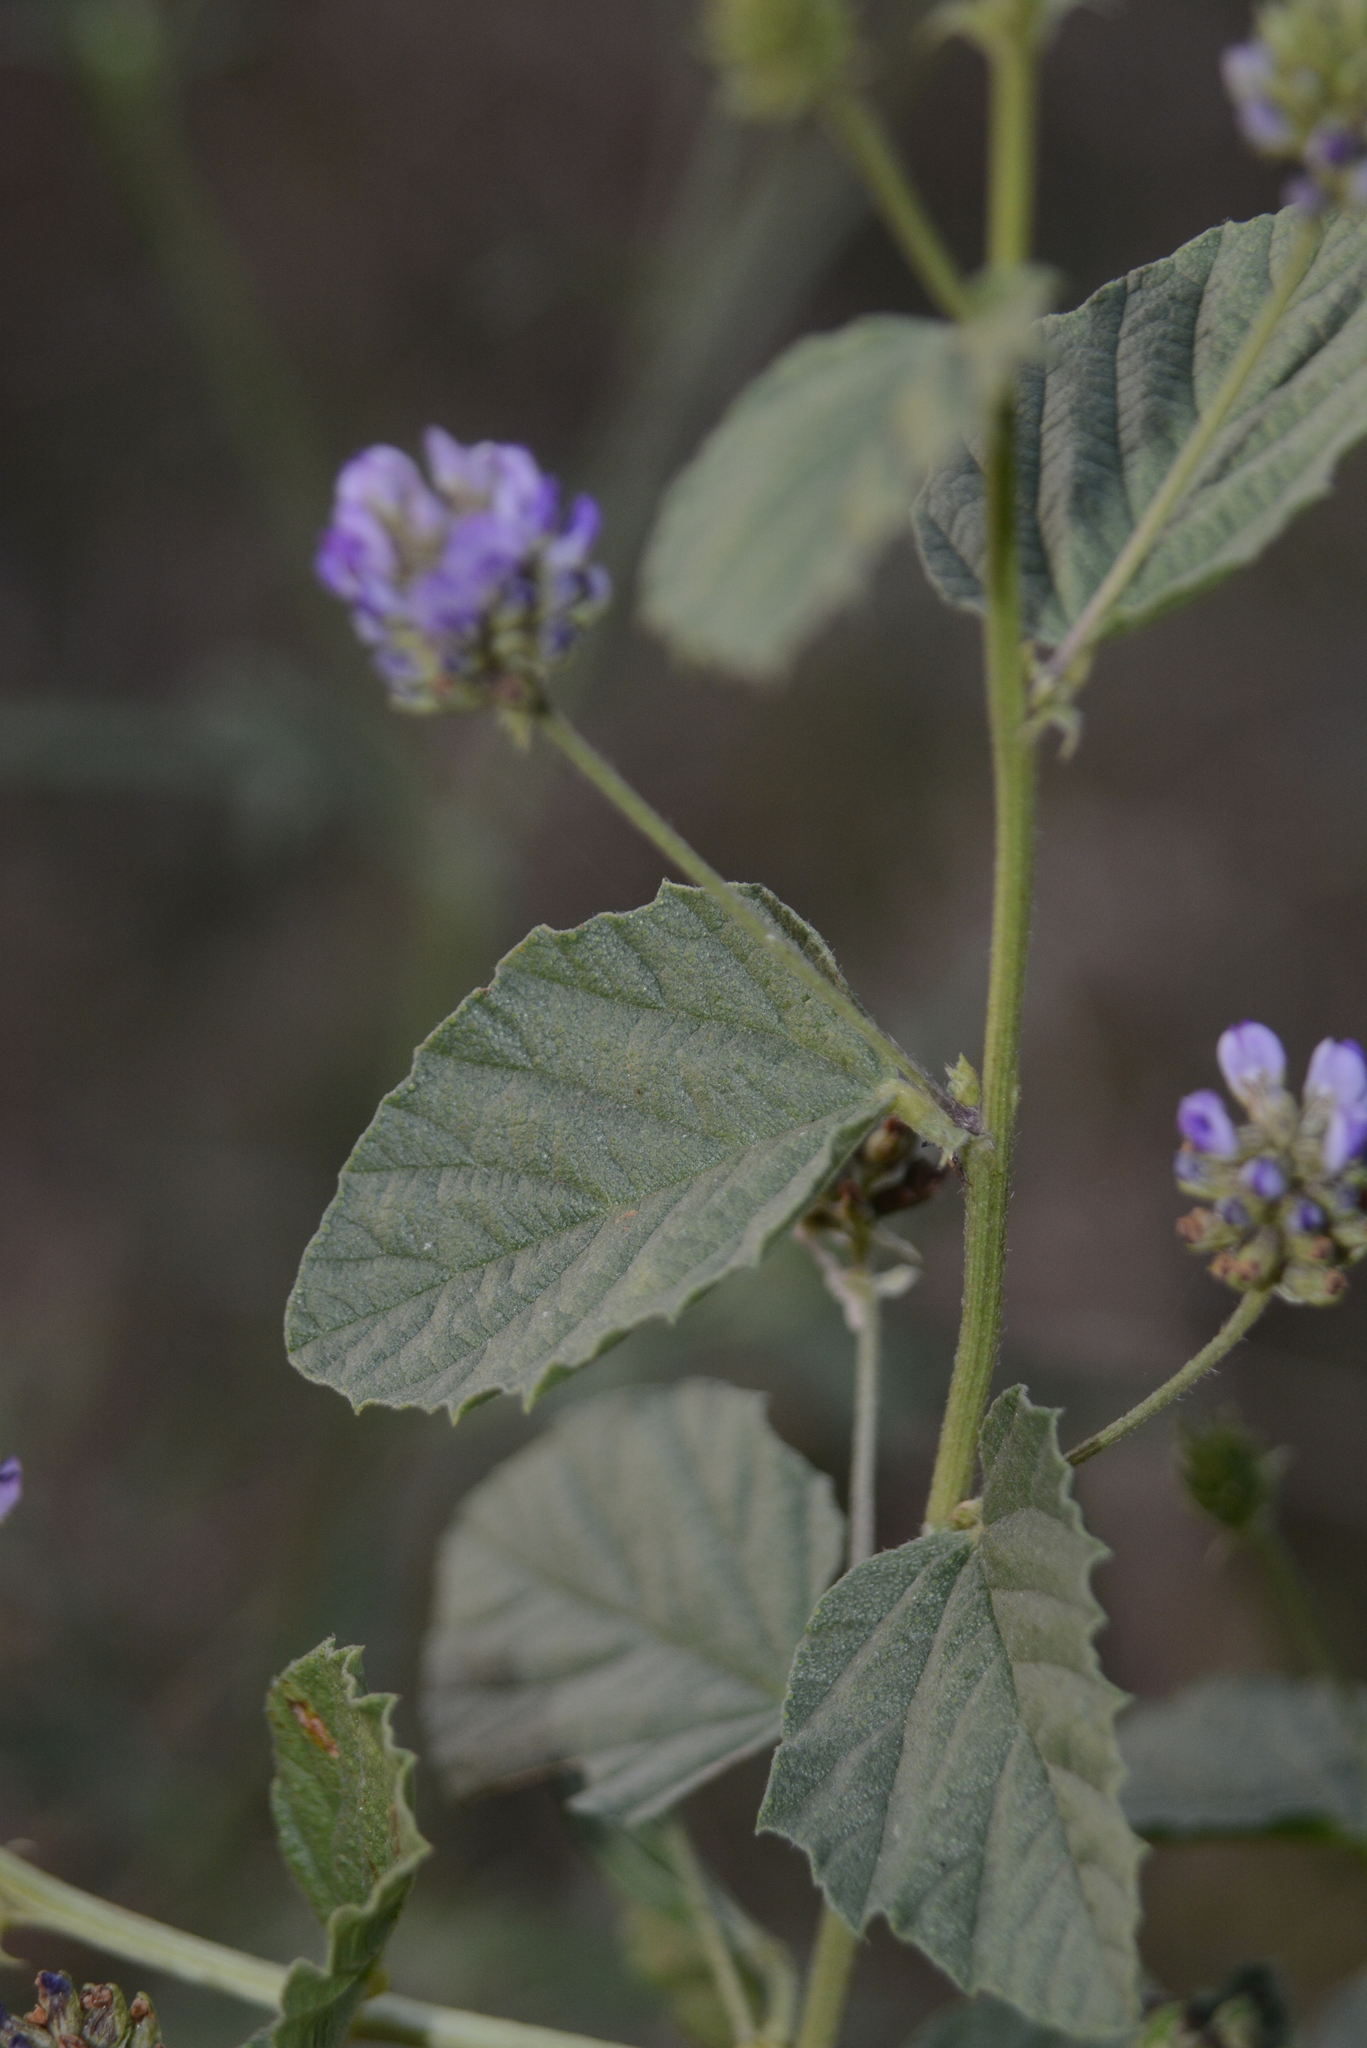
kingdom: Plantae
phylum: Tracheophyta
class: Magnoliopsida
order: Fabales
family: Fabaceae
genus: Cullen
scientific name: Cullen corylifolium
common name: Malaysian scurfpea
